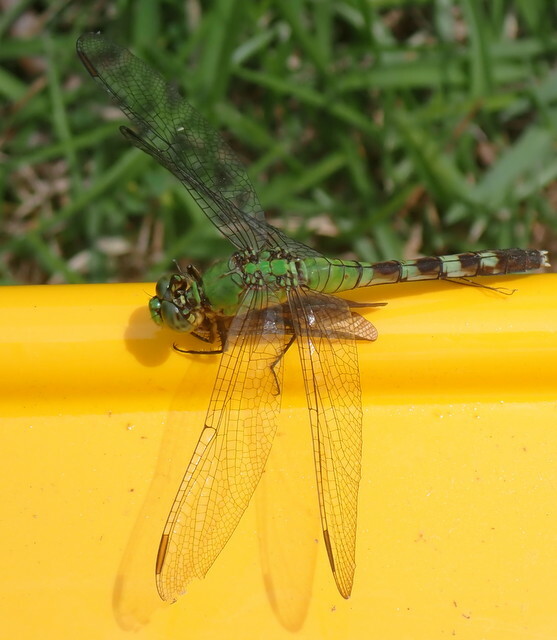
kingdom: Animalia
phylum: Arthropoda
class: Insecta
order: Odonata
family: Libellulidae
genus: Erythemis
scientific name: Erythemis simplicicollis
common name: Eastern pondhawk
